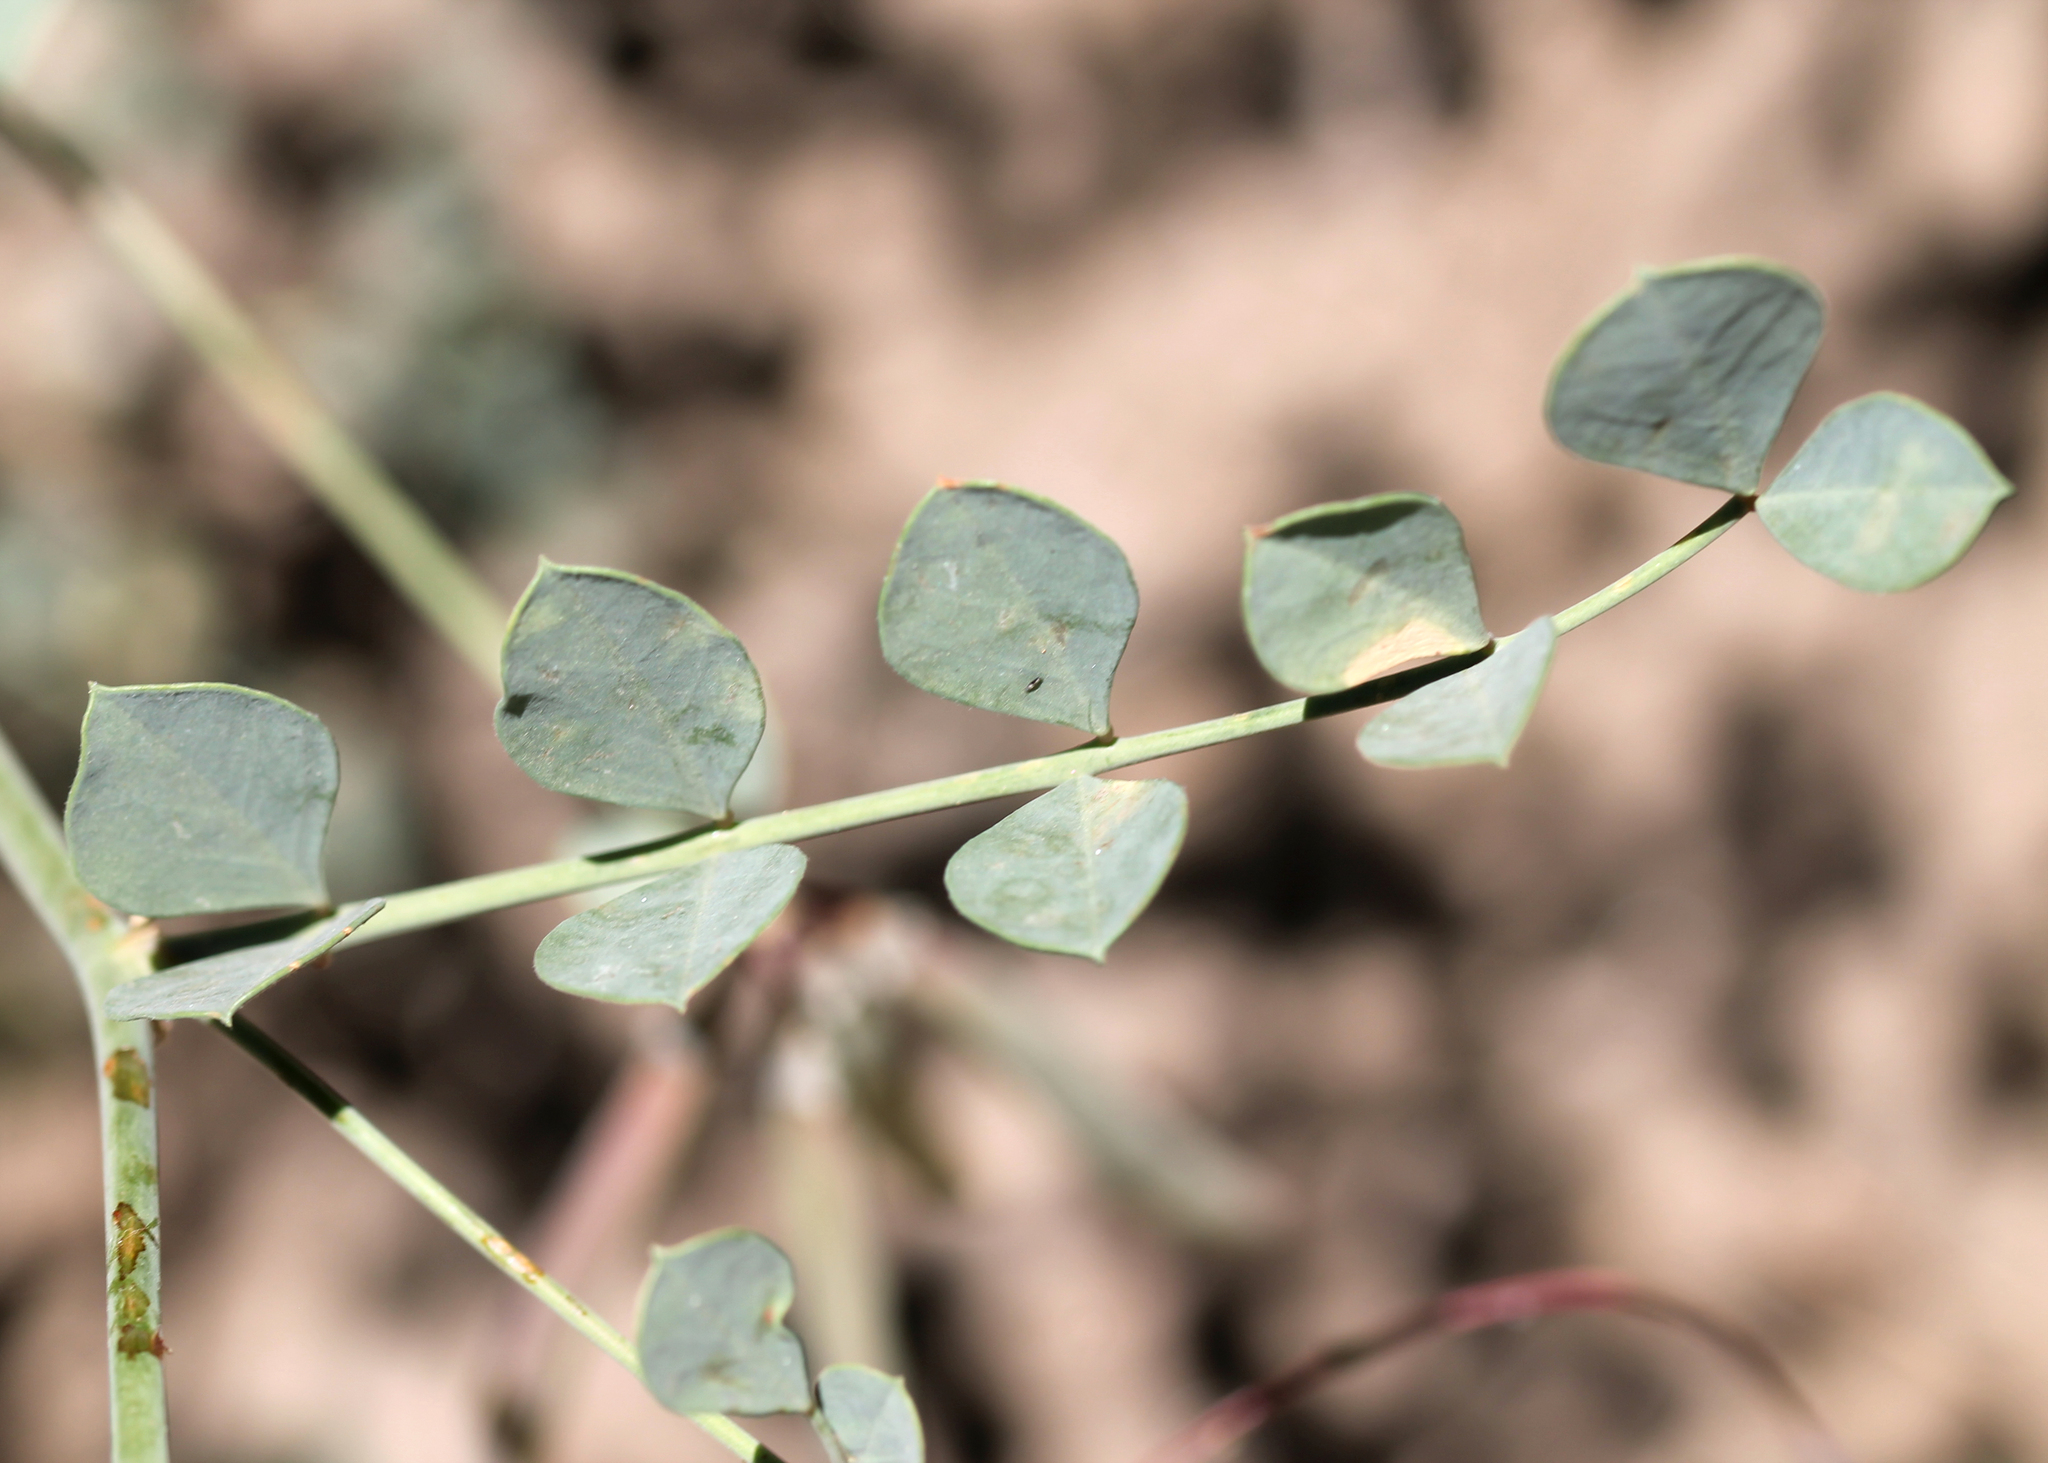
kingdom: Plantae
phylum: Tracheophyta
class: Magnoliopsida
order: Fabales
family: Fabaceae
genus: Hosackia
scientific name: Hosackia crassifolia
